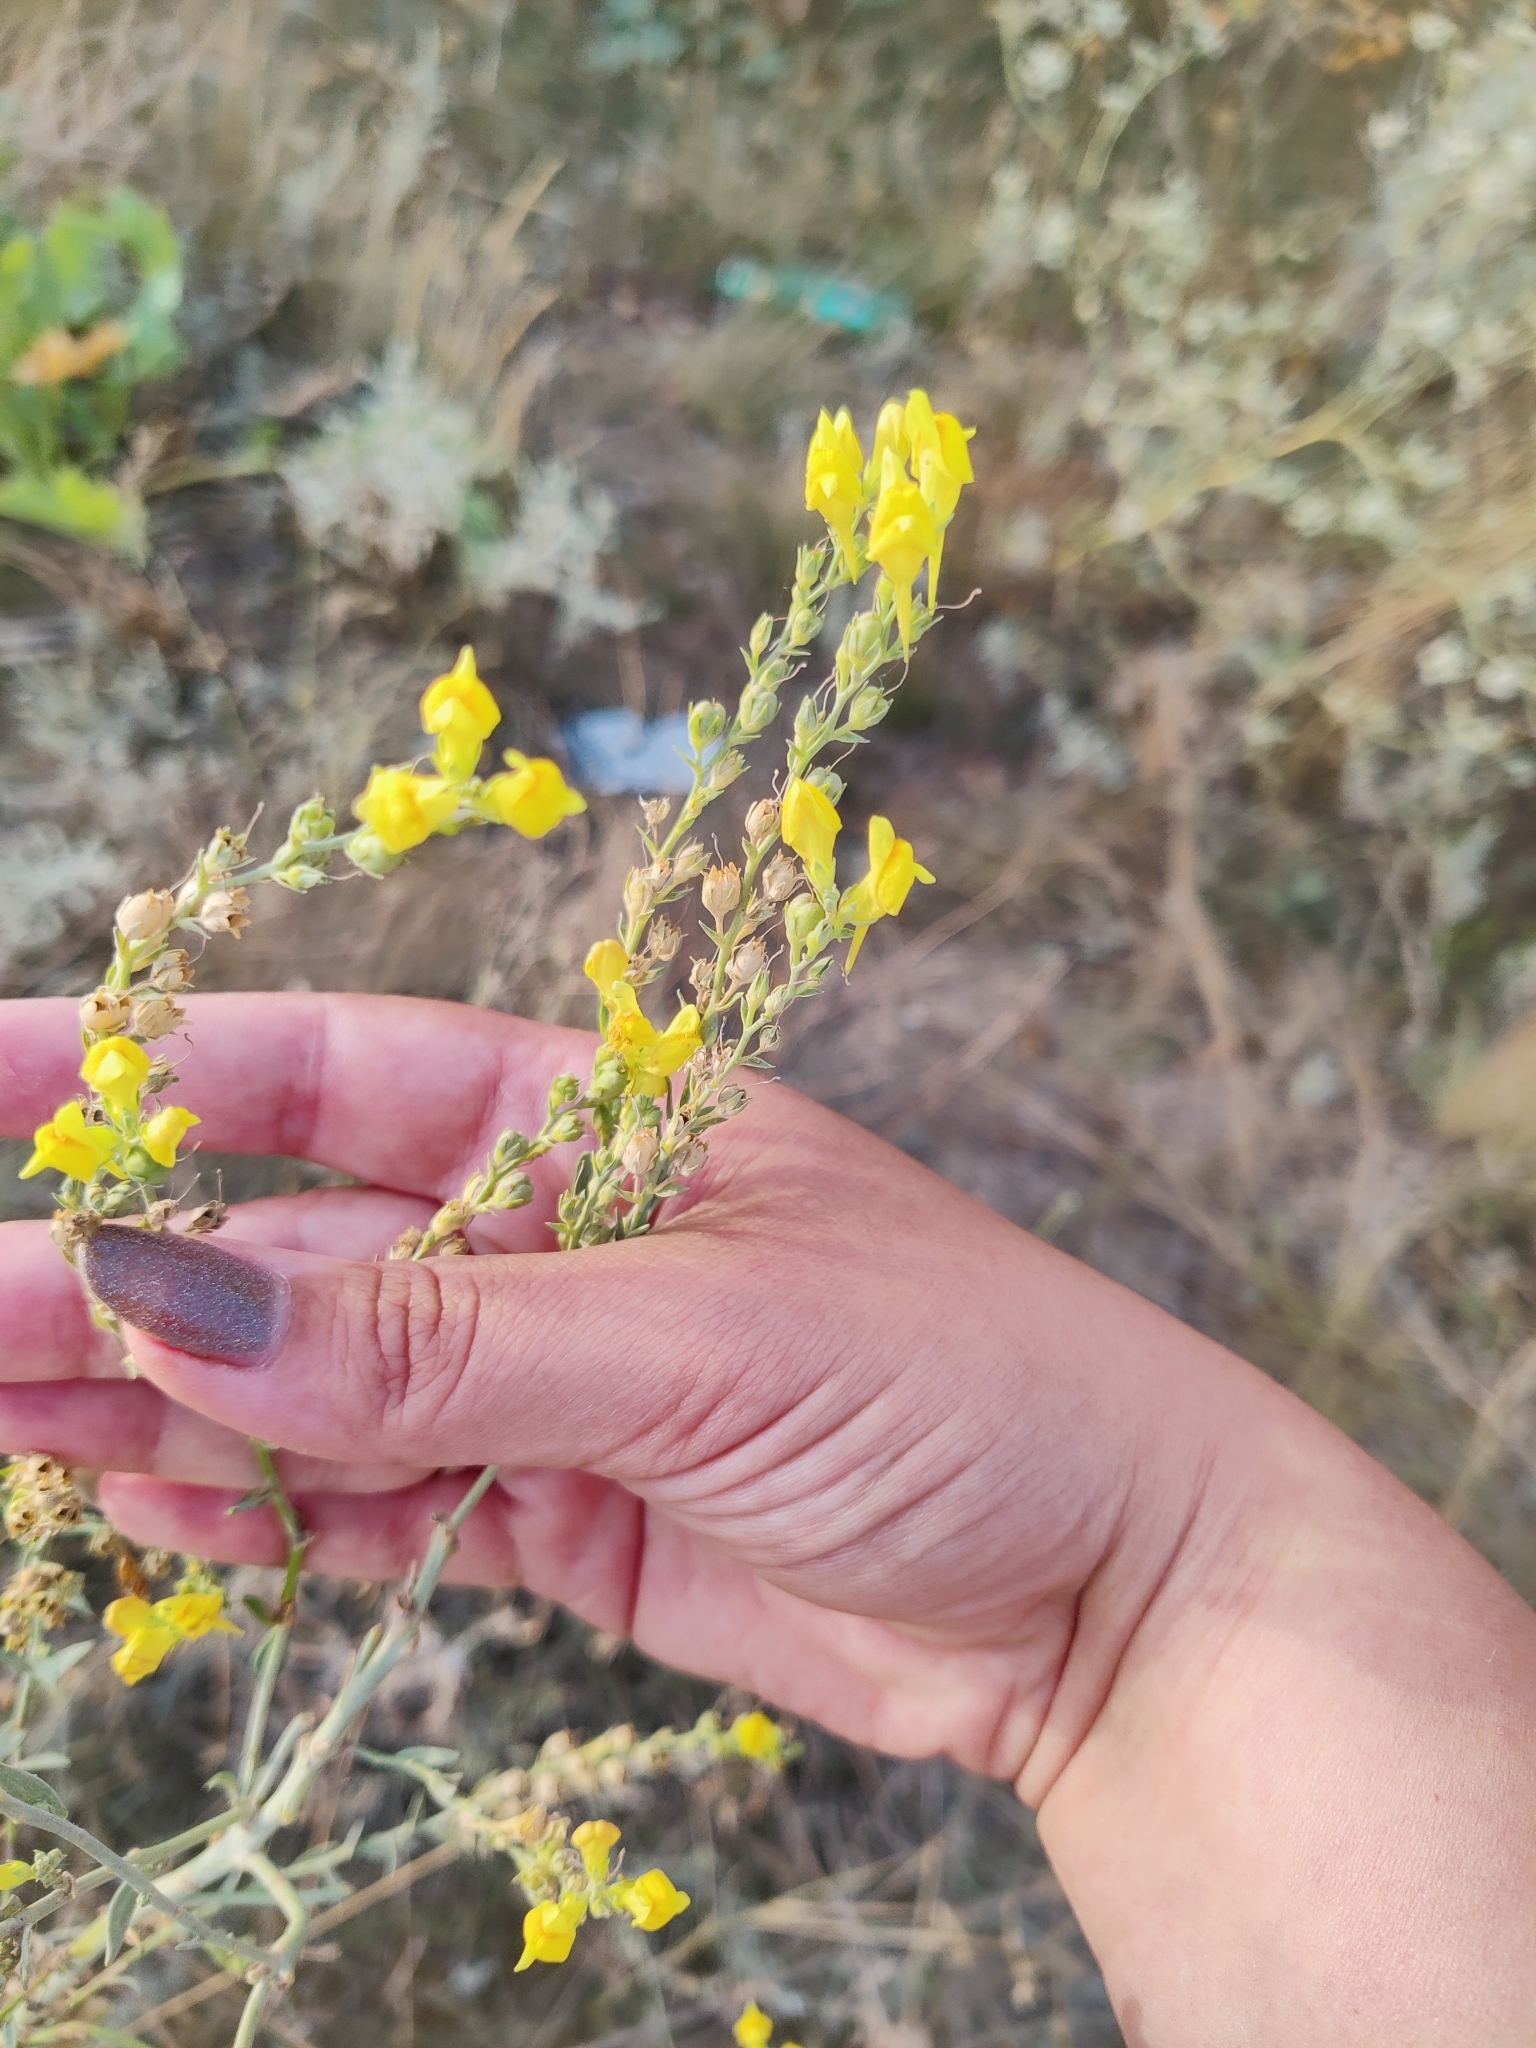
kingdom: Plantae
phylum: Tracheophyta
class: Magnoliopsida
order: Lamiales
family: Plantaginaceae
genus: Linaria
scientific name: Linaria genistifolia
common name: Broomleaf toadflax
